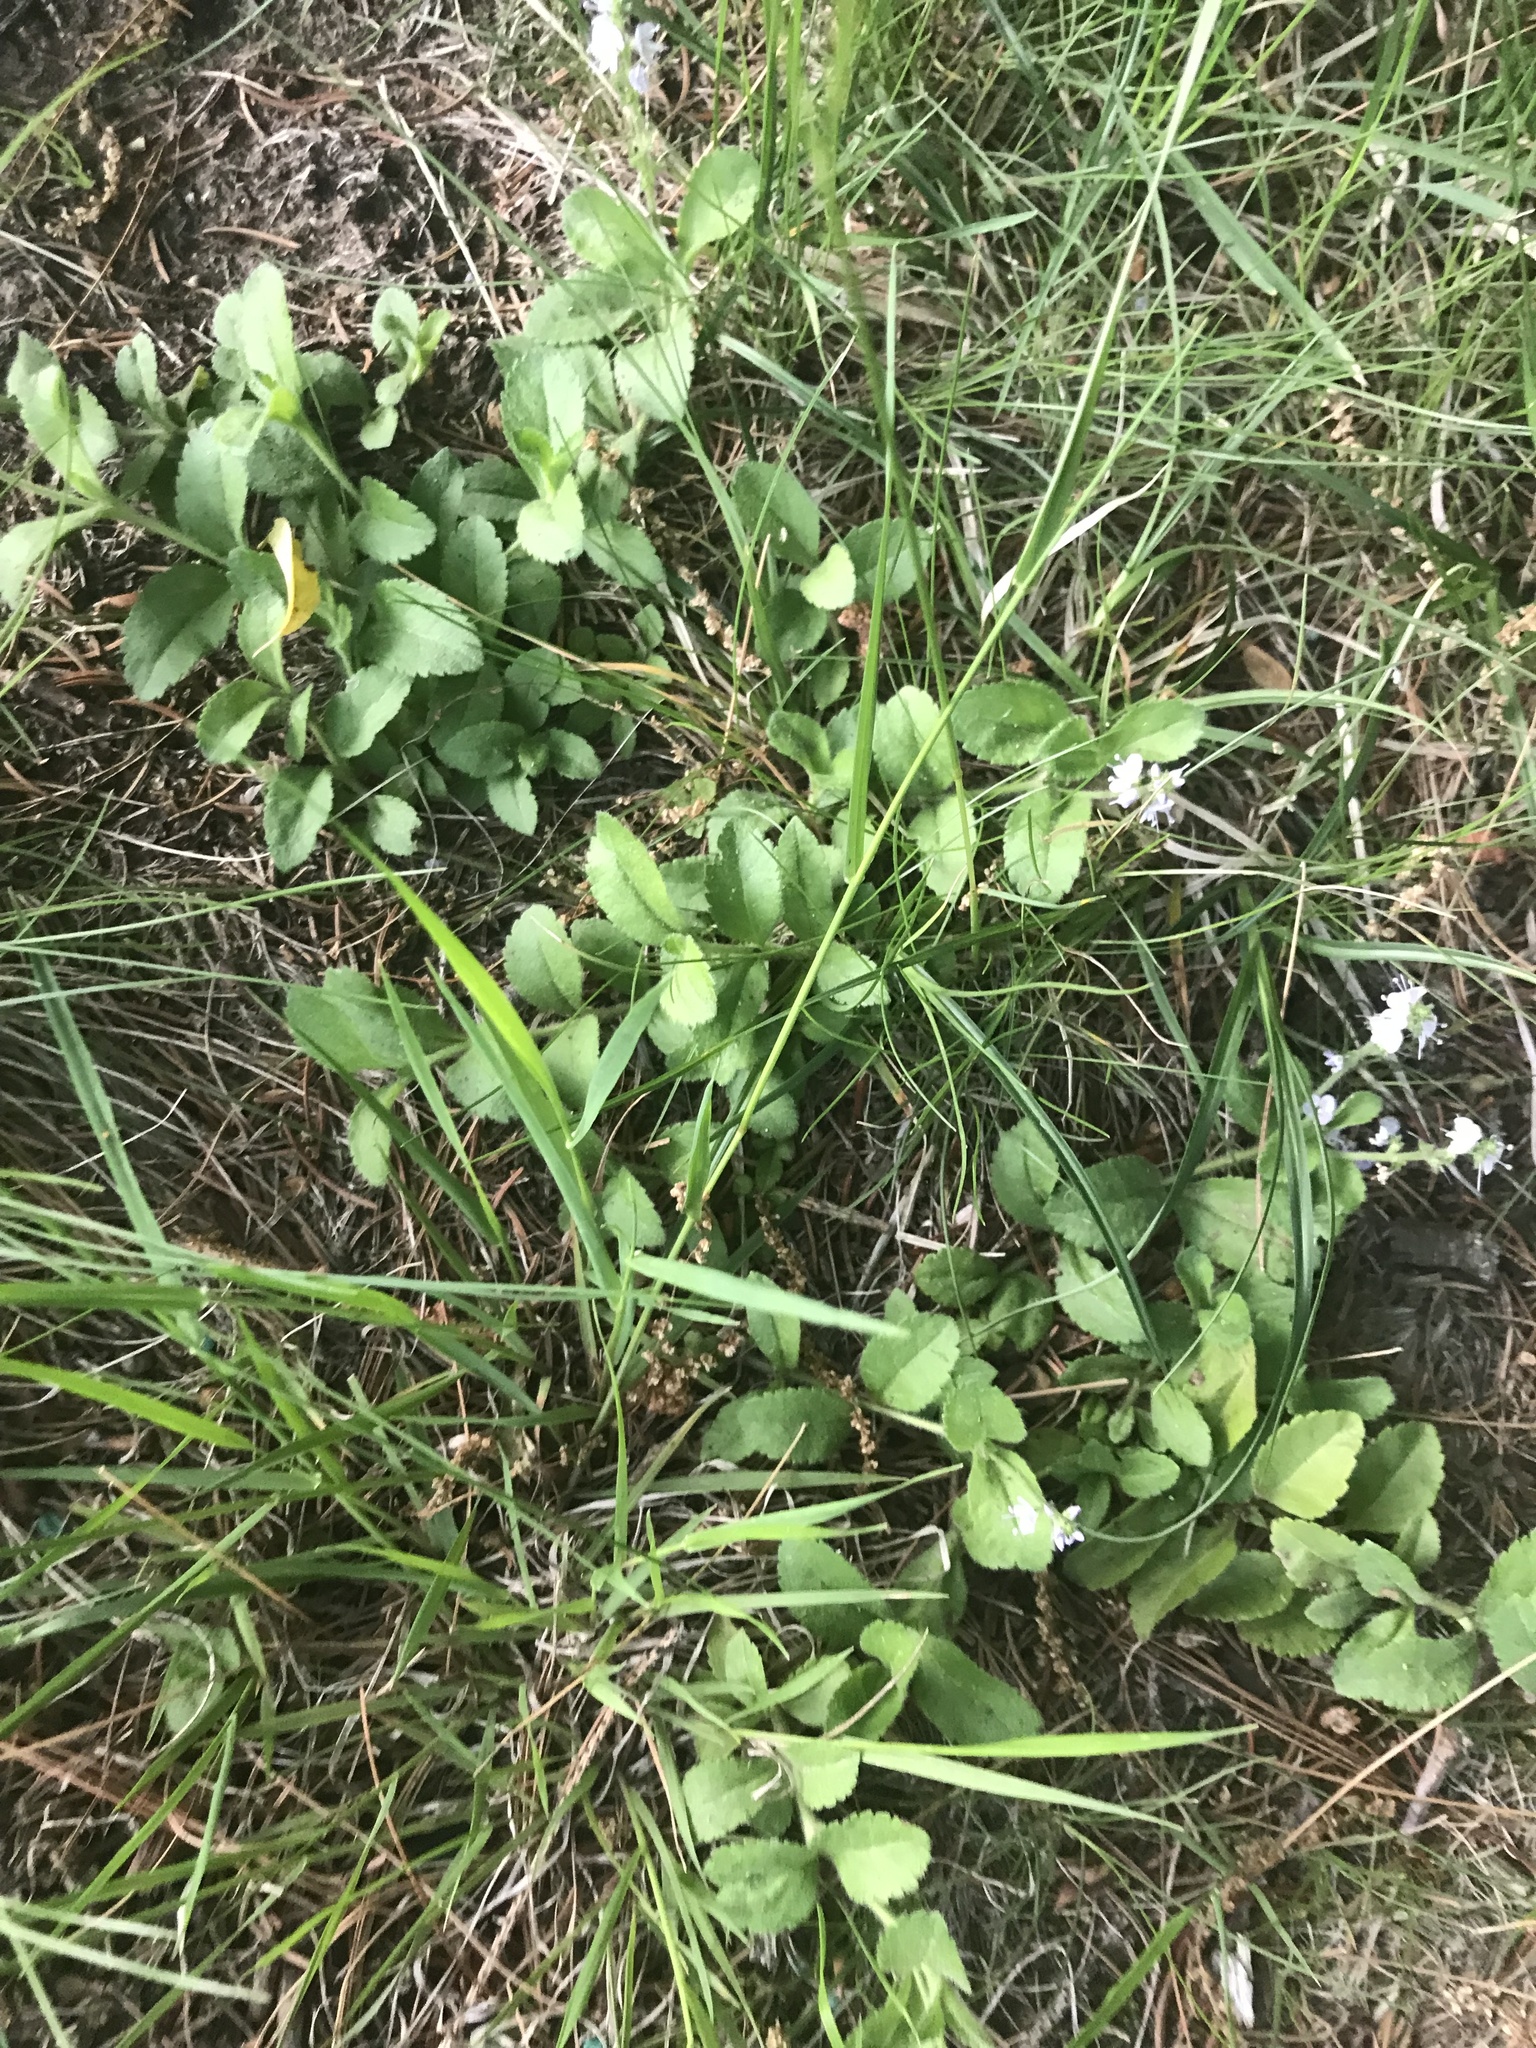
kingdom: Plantae
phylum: Tracheophyta
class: Magnoliopsida
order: Lamiales
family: Plantaginaceae
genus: Veronica
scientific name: Veronica officinalis
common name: Common speedwell
